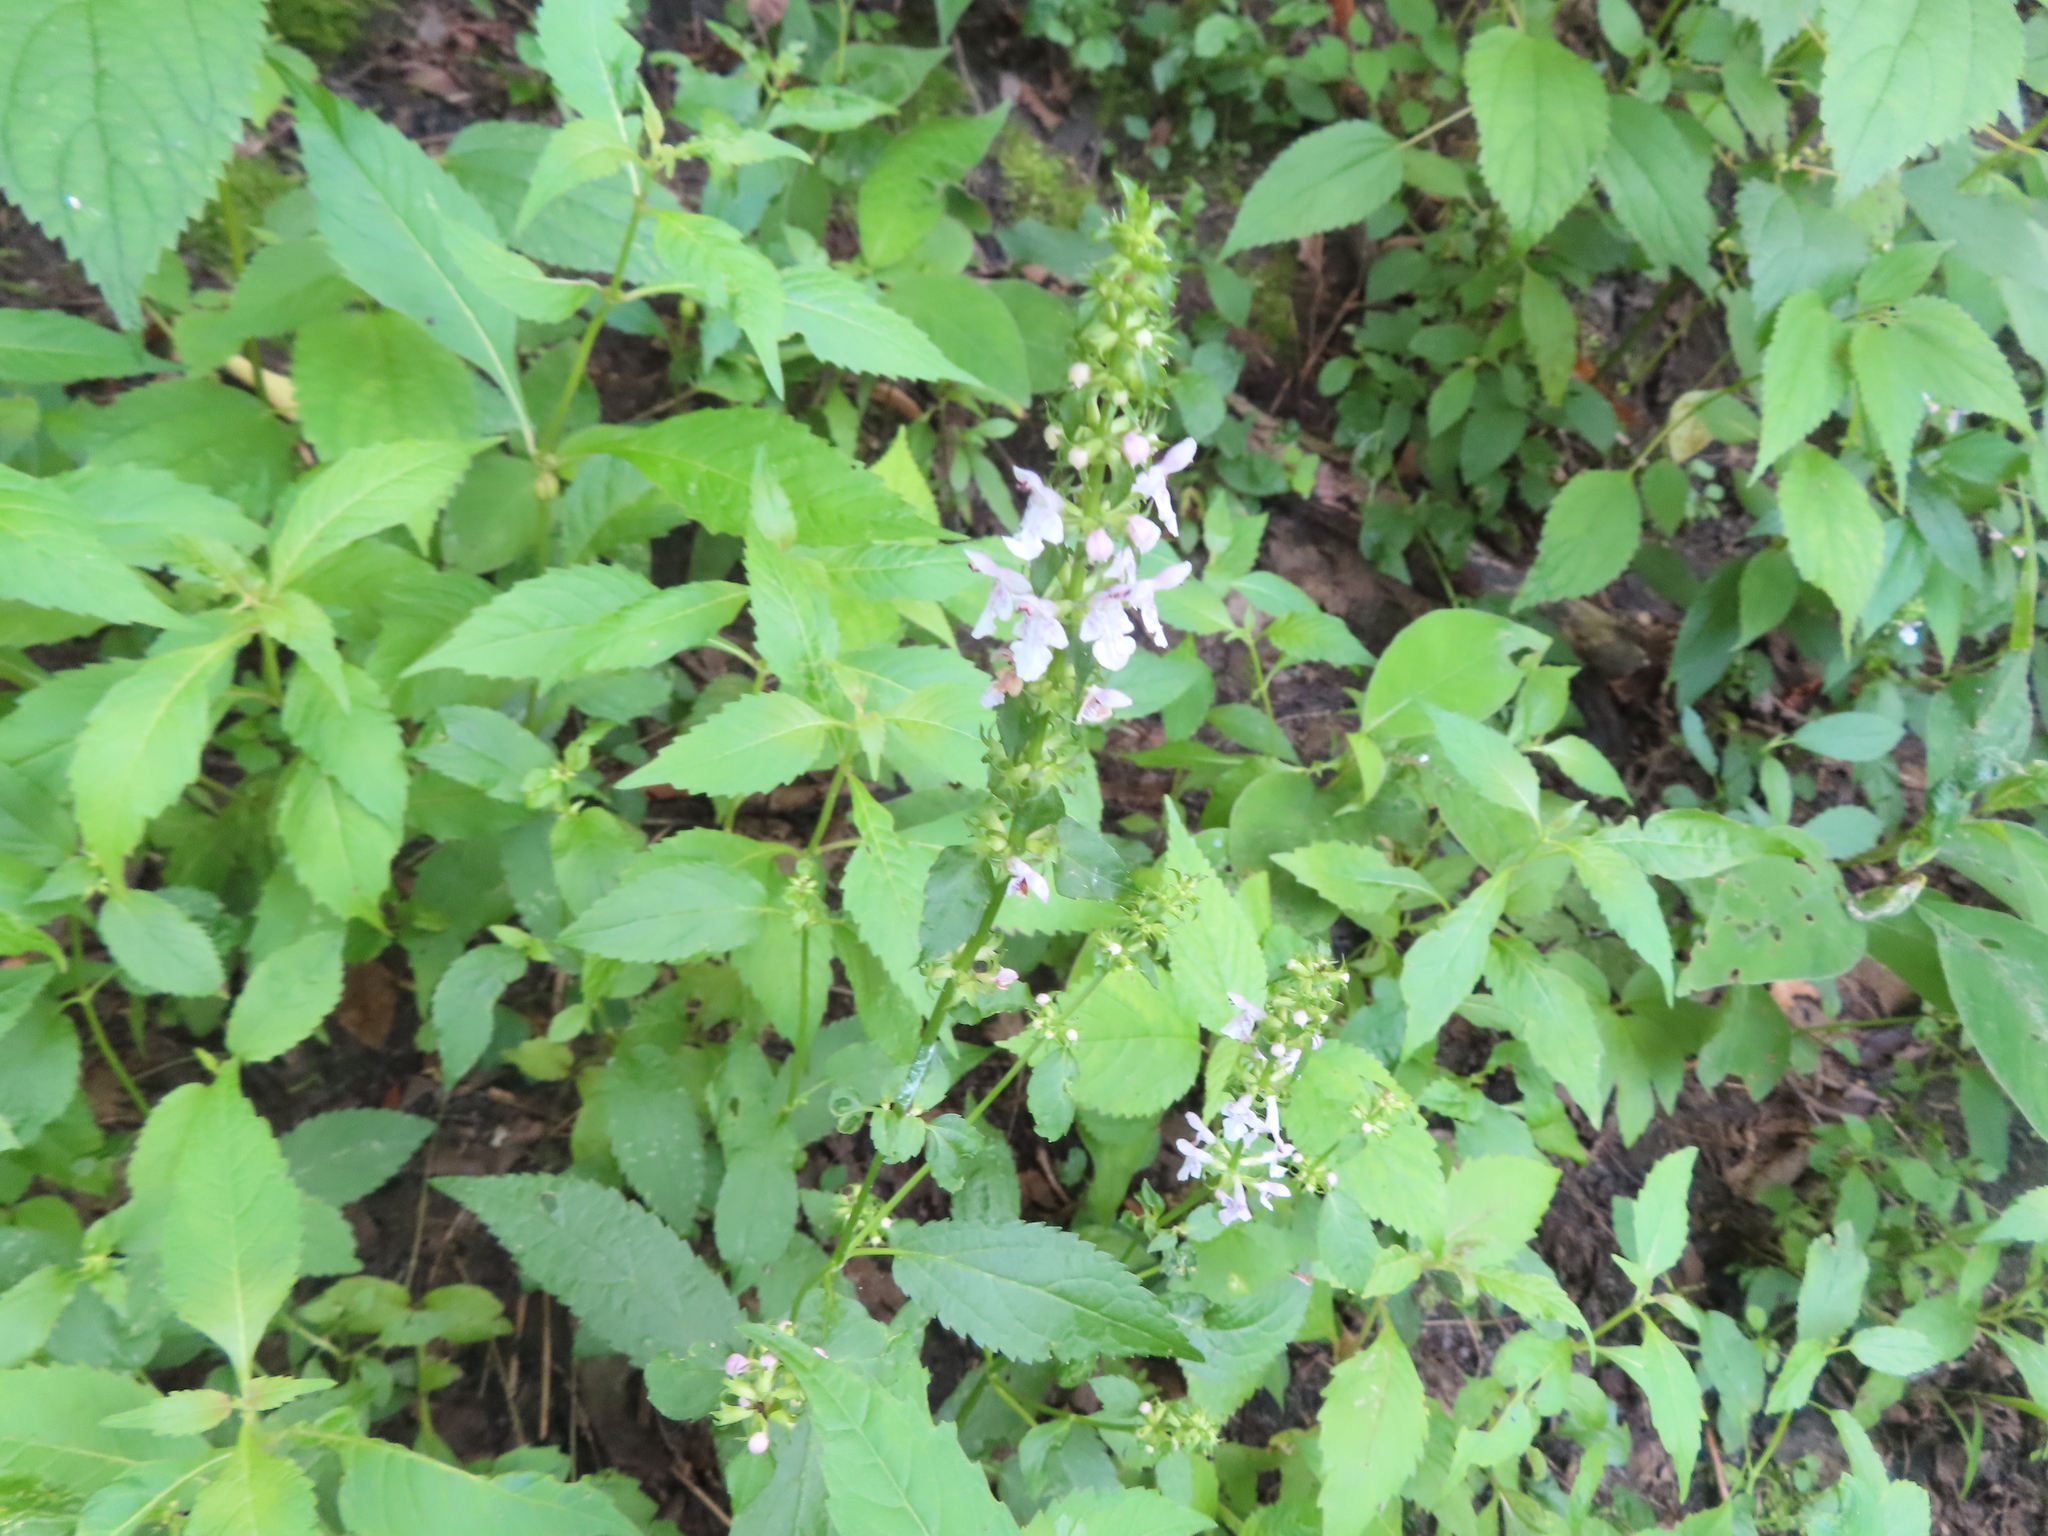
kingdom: Plantae
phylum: Tracheophyta
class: Magnoliopsida
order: Lamiales
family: Lamiaceae
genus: Stachys
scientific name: Stachys tenuifolia
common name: Smooth hedge-nettle
